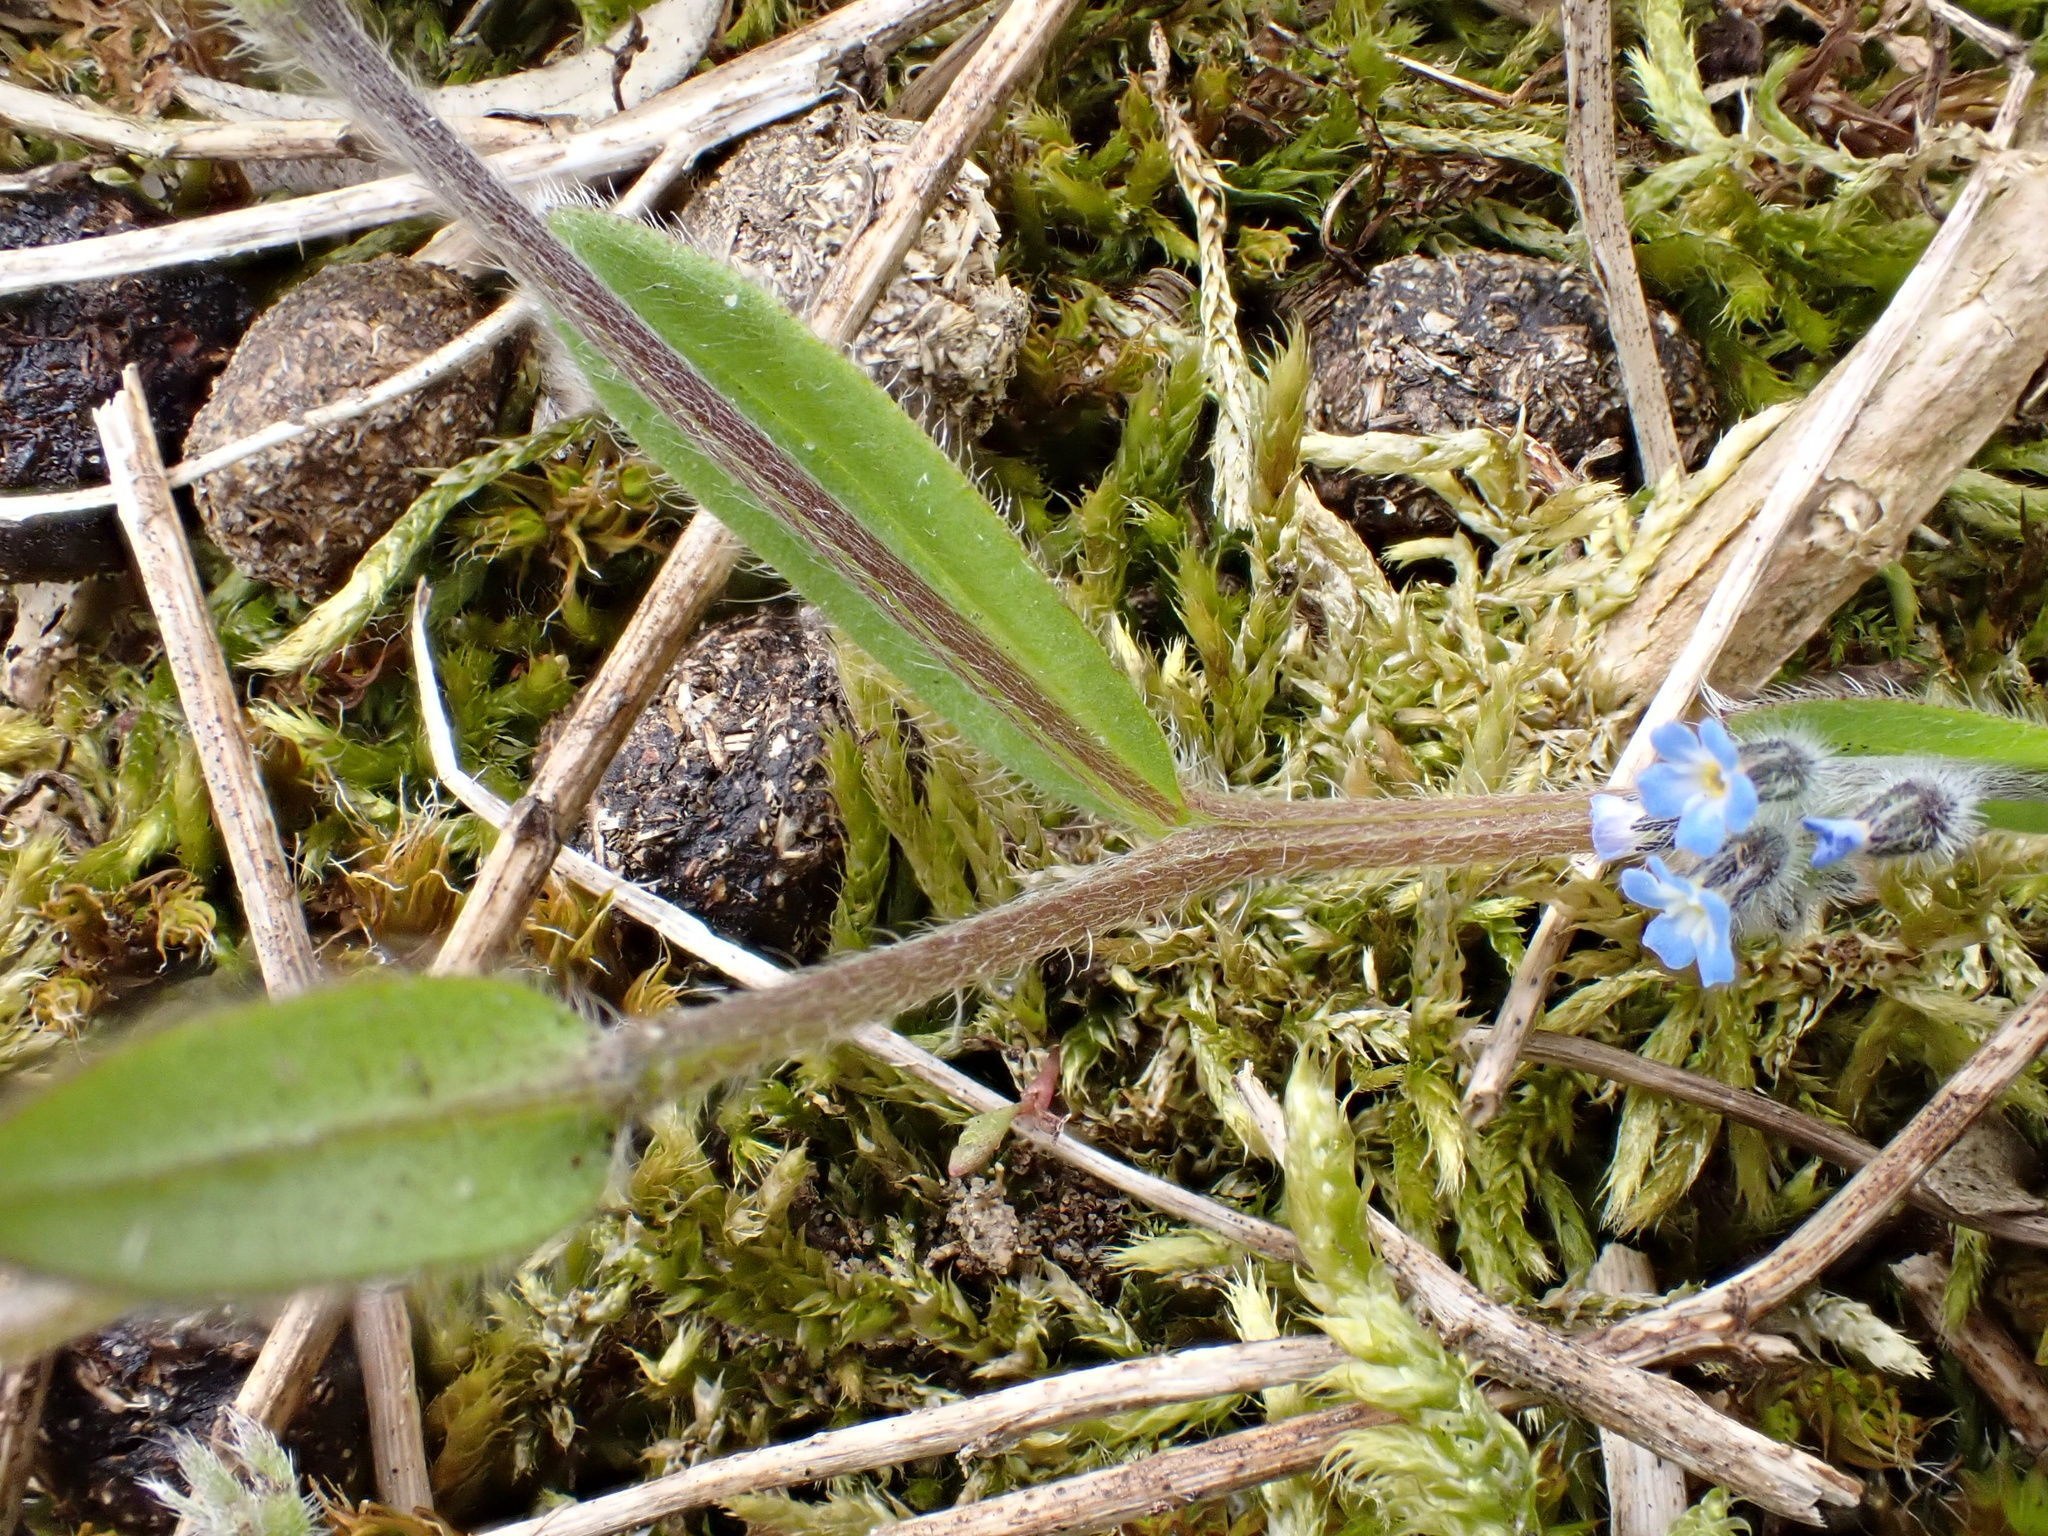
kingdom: Plantae
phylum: Tracheophyta
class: Magnoliopsida
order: Boraginales
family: Boraginaceae
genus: Myosotis
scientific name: Myosotis ramosissima
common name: Early forget-me-not
